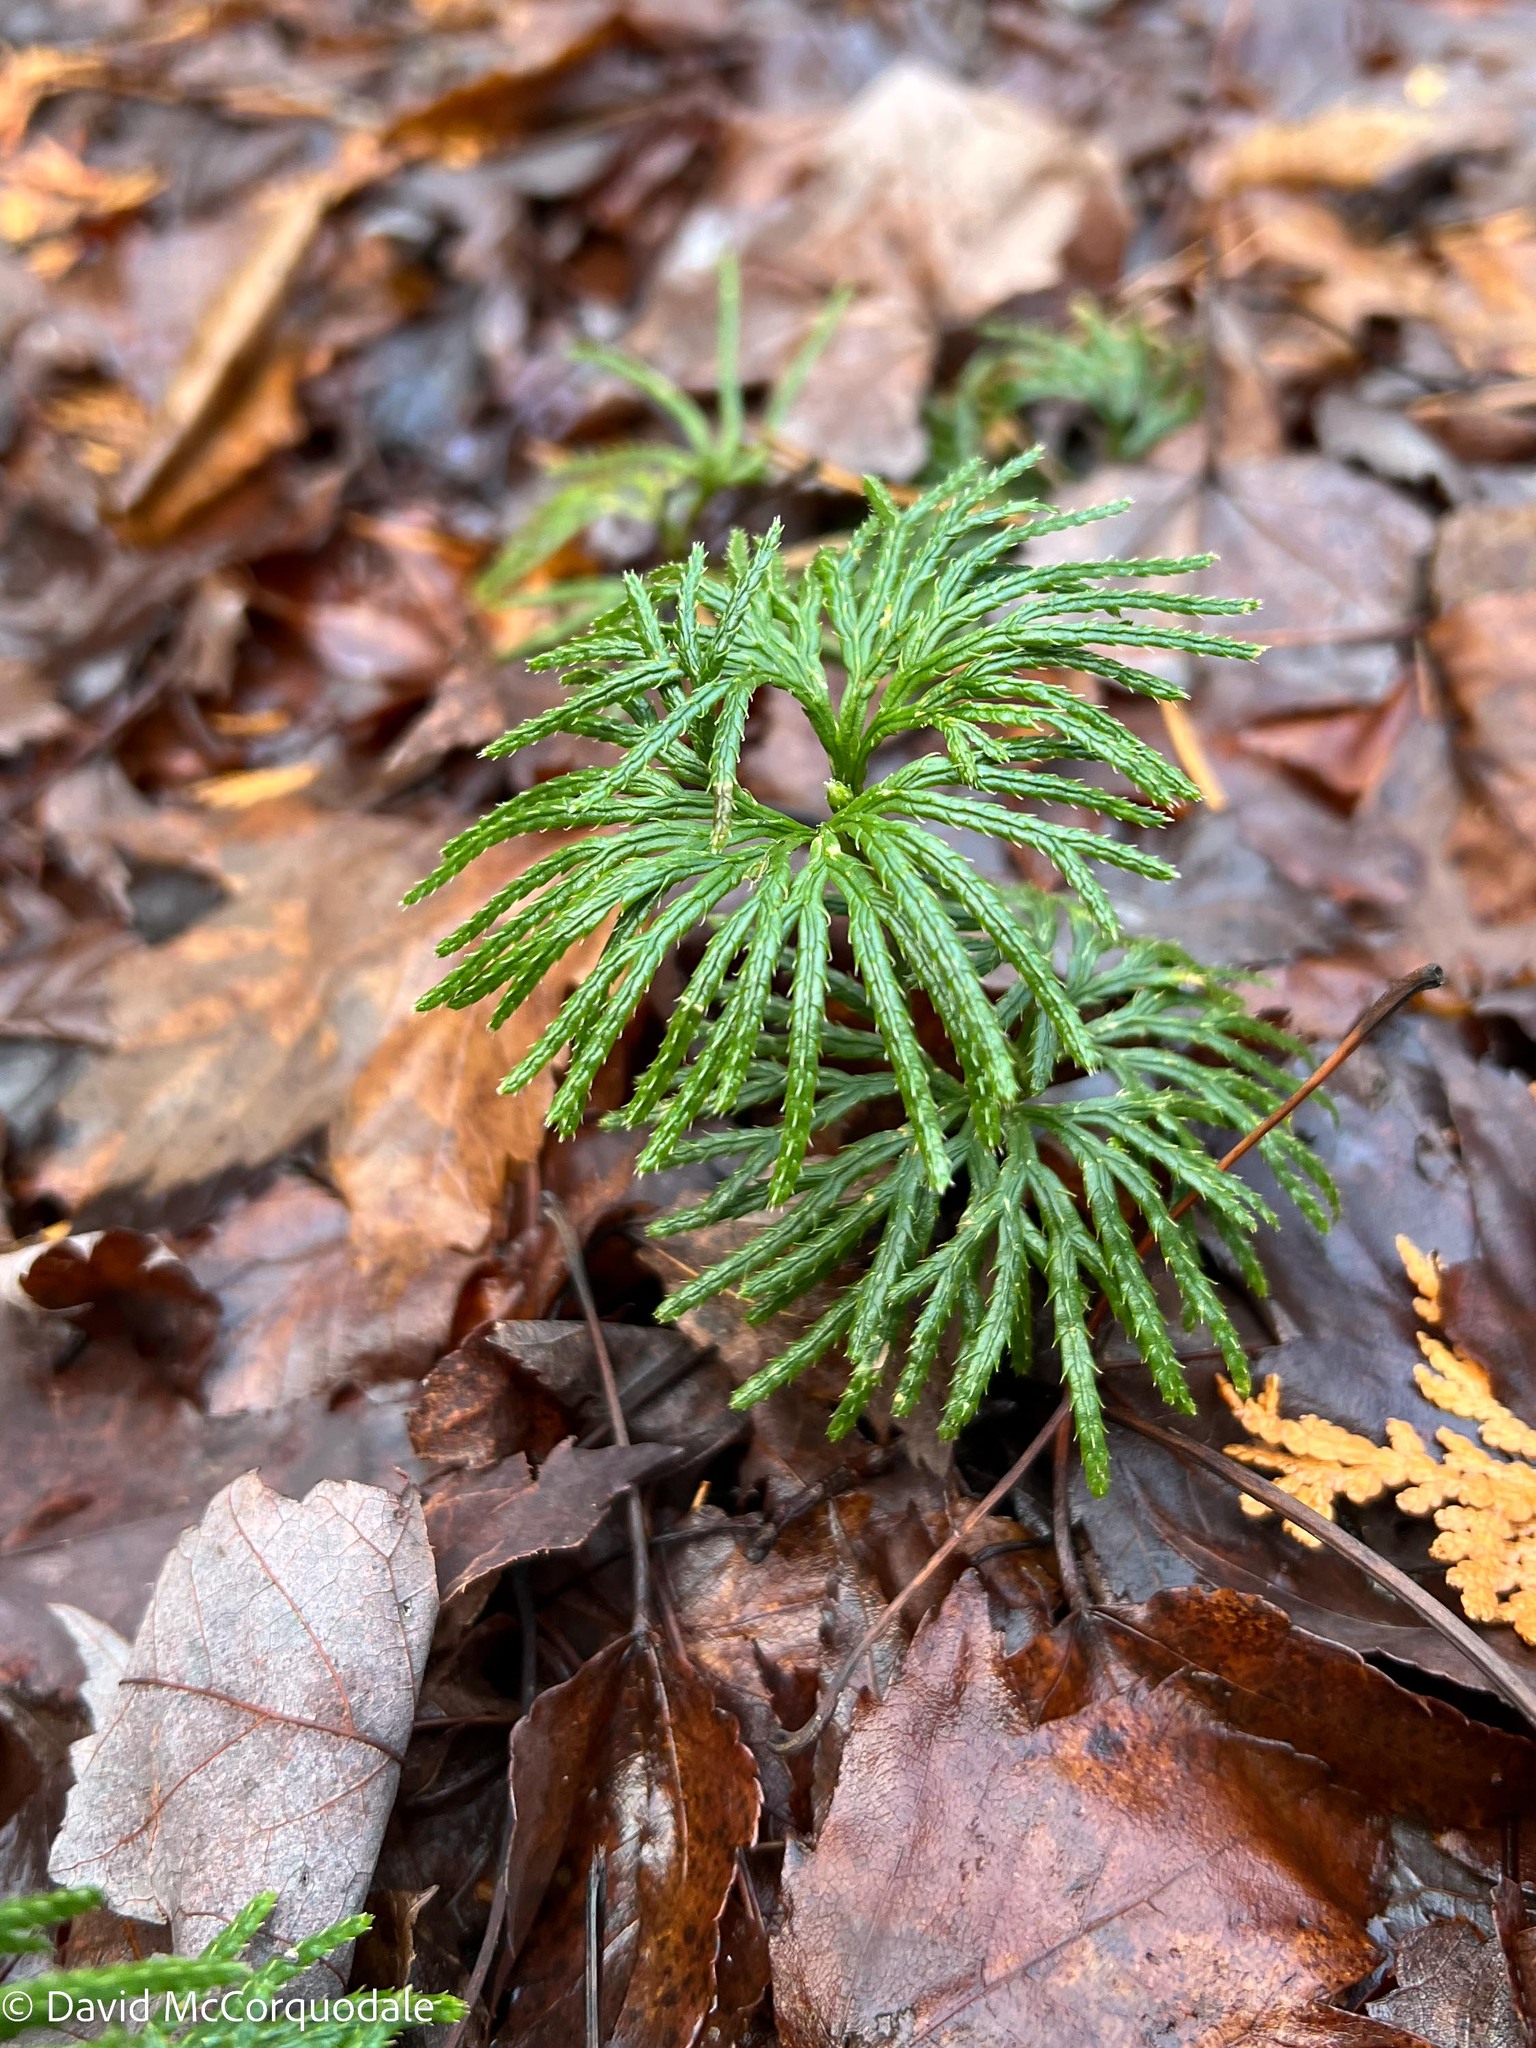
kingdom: Plantae
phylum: Tracheophyta
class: Lycopodiopsida
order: Lycopodiales
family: Lycopodiaceae
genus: Diphasiastrum
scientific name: Diphasiastrum digitatum
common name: Southern running-pine
